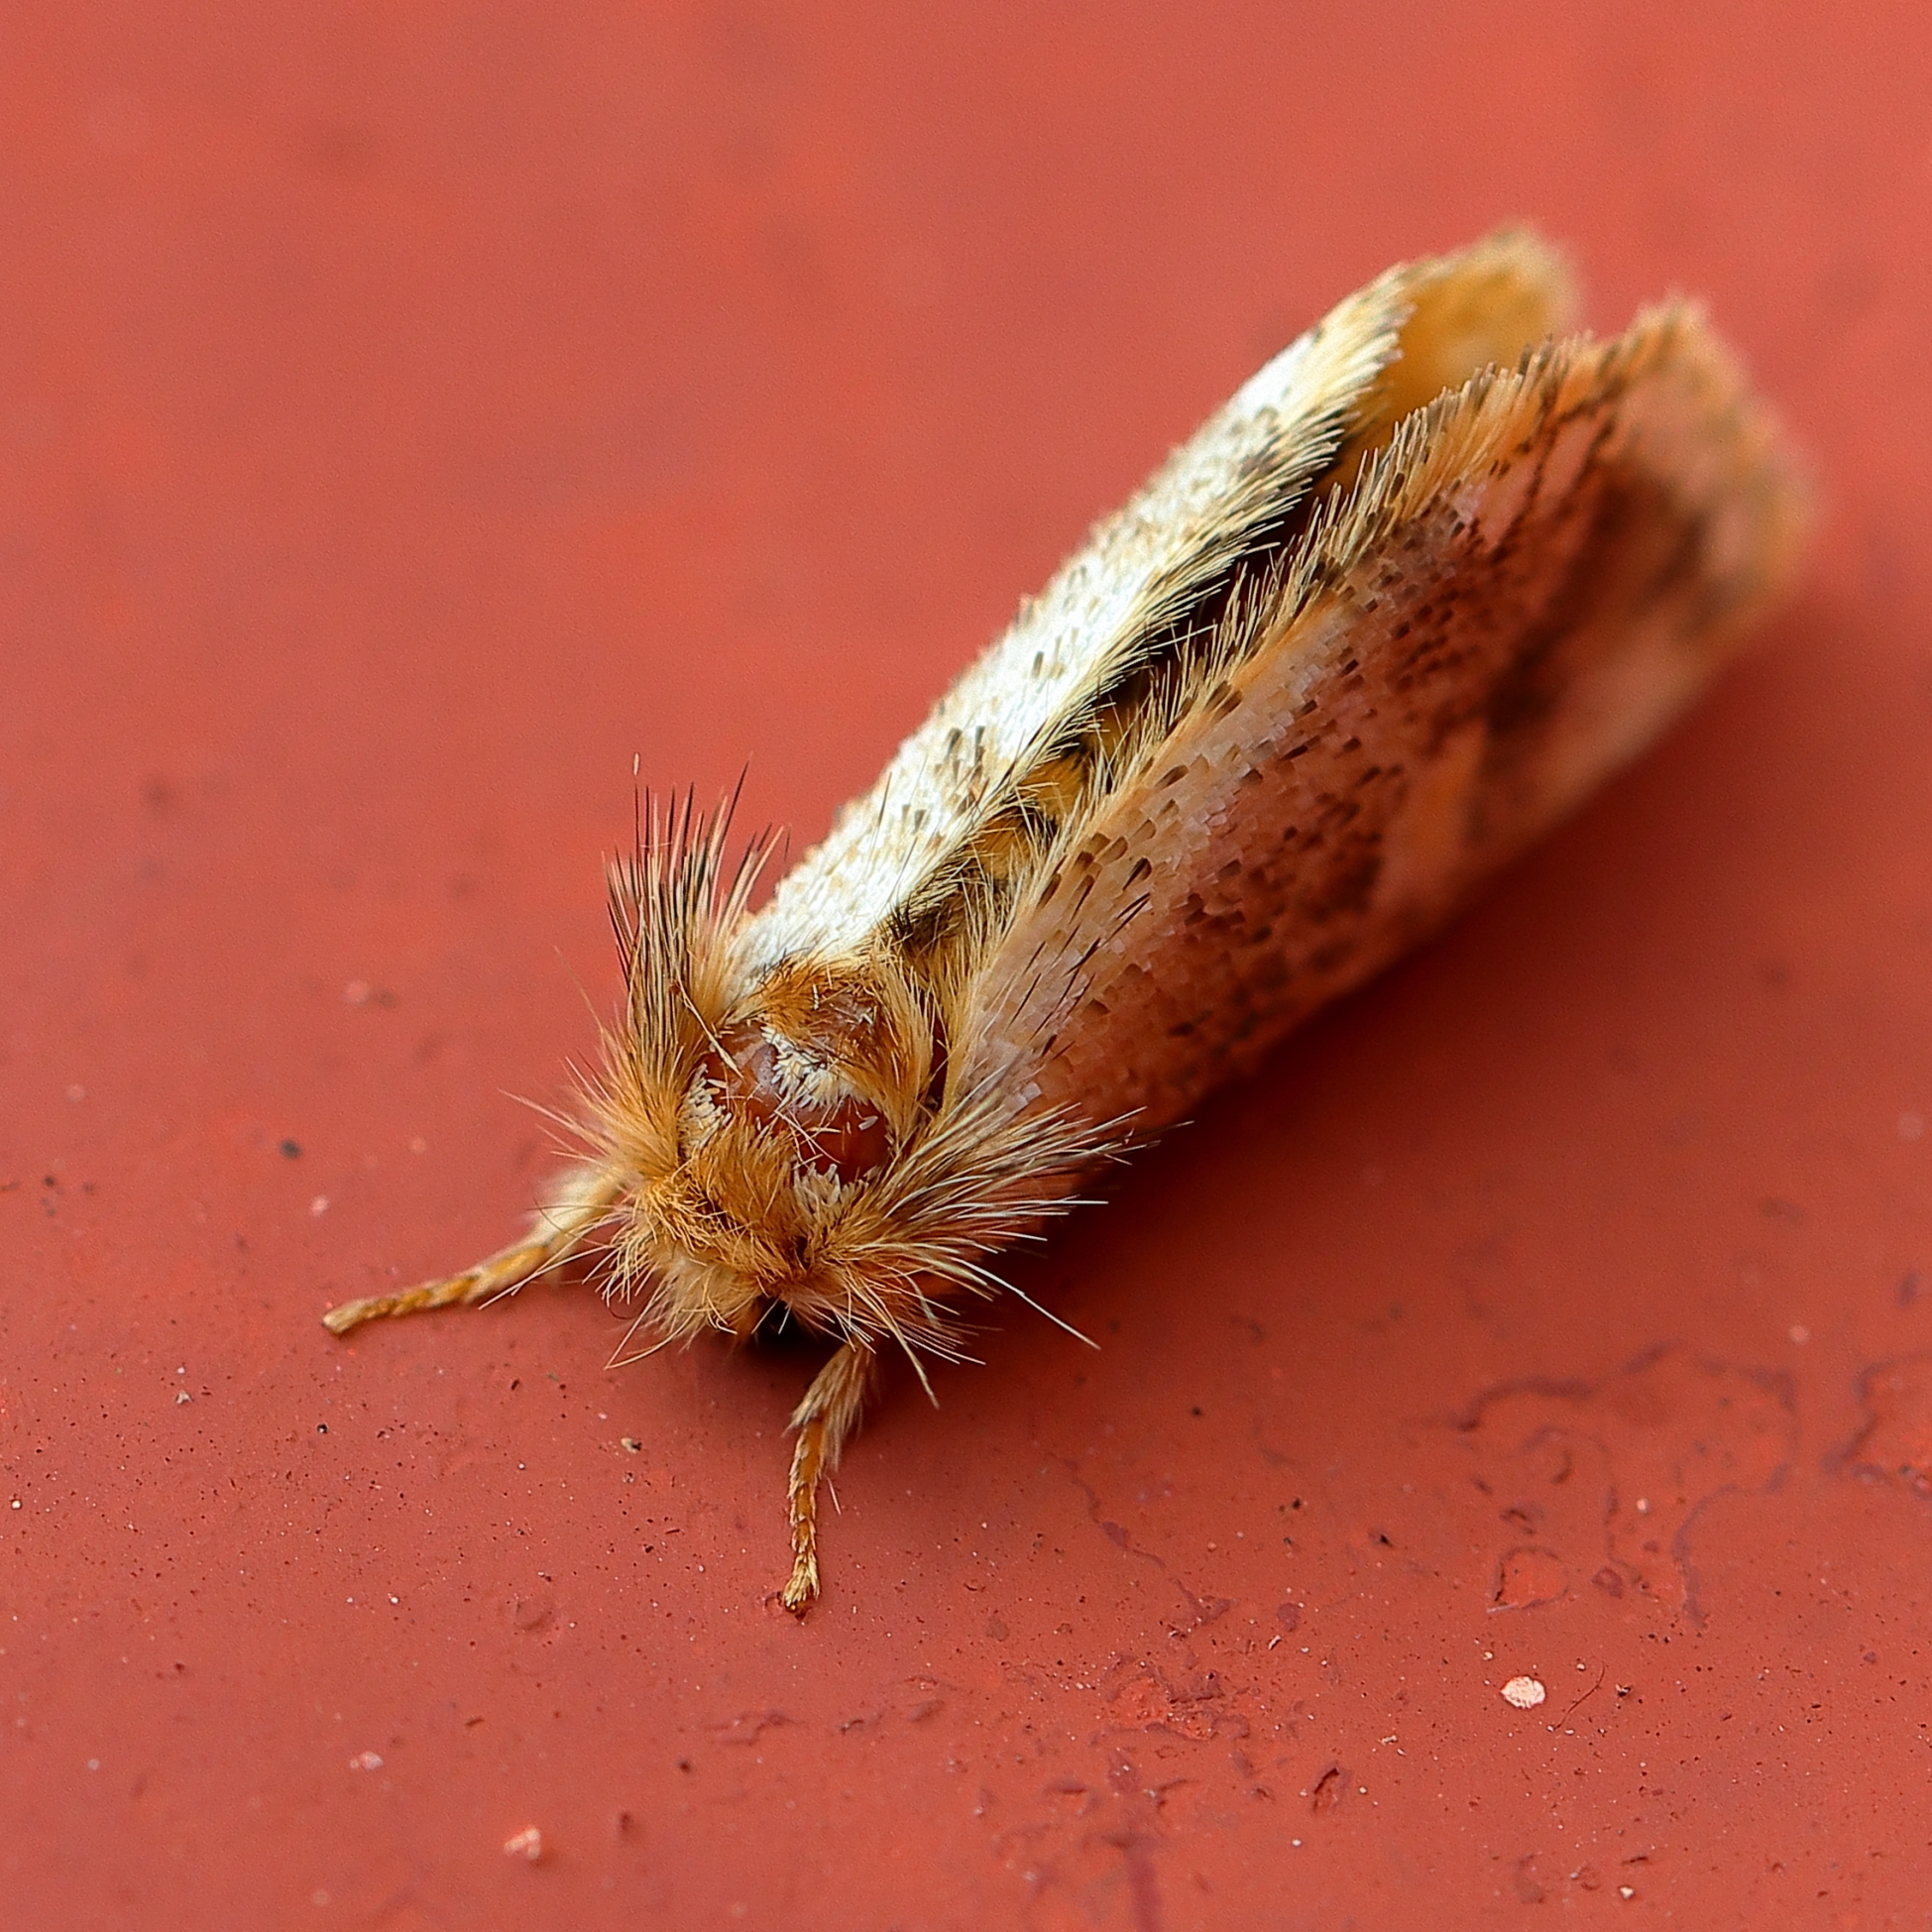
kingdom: Animalia
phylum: Arthropoda
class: Insecta
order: Lepidoptera
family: Notodontidae
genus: Epicoma
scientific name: Epicoma protrahens
